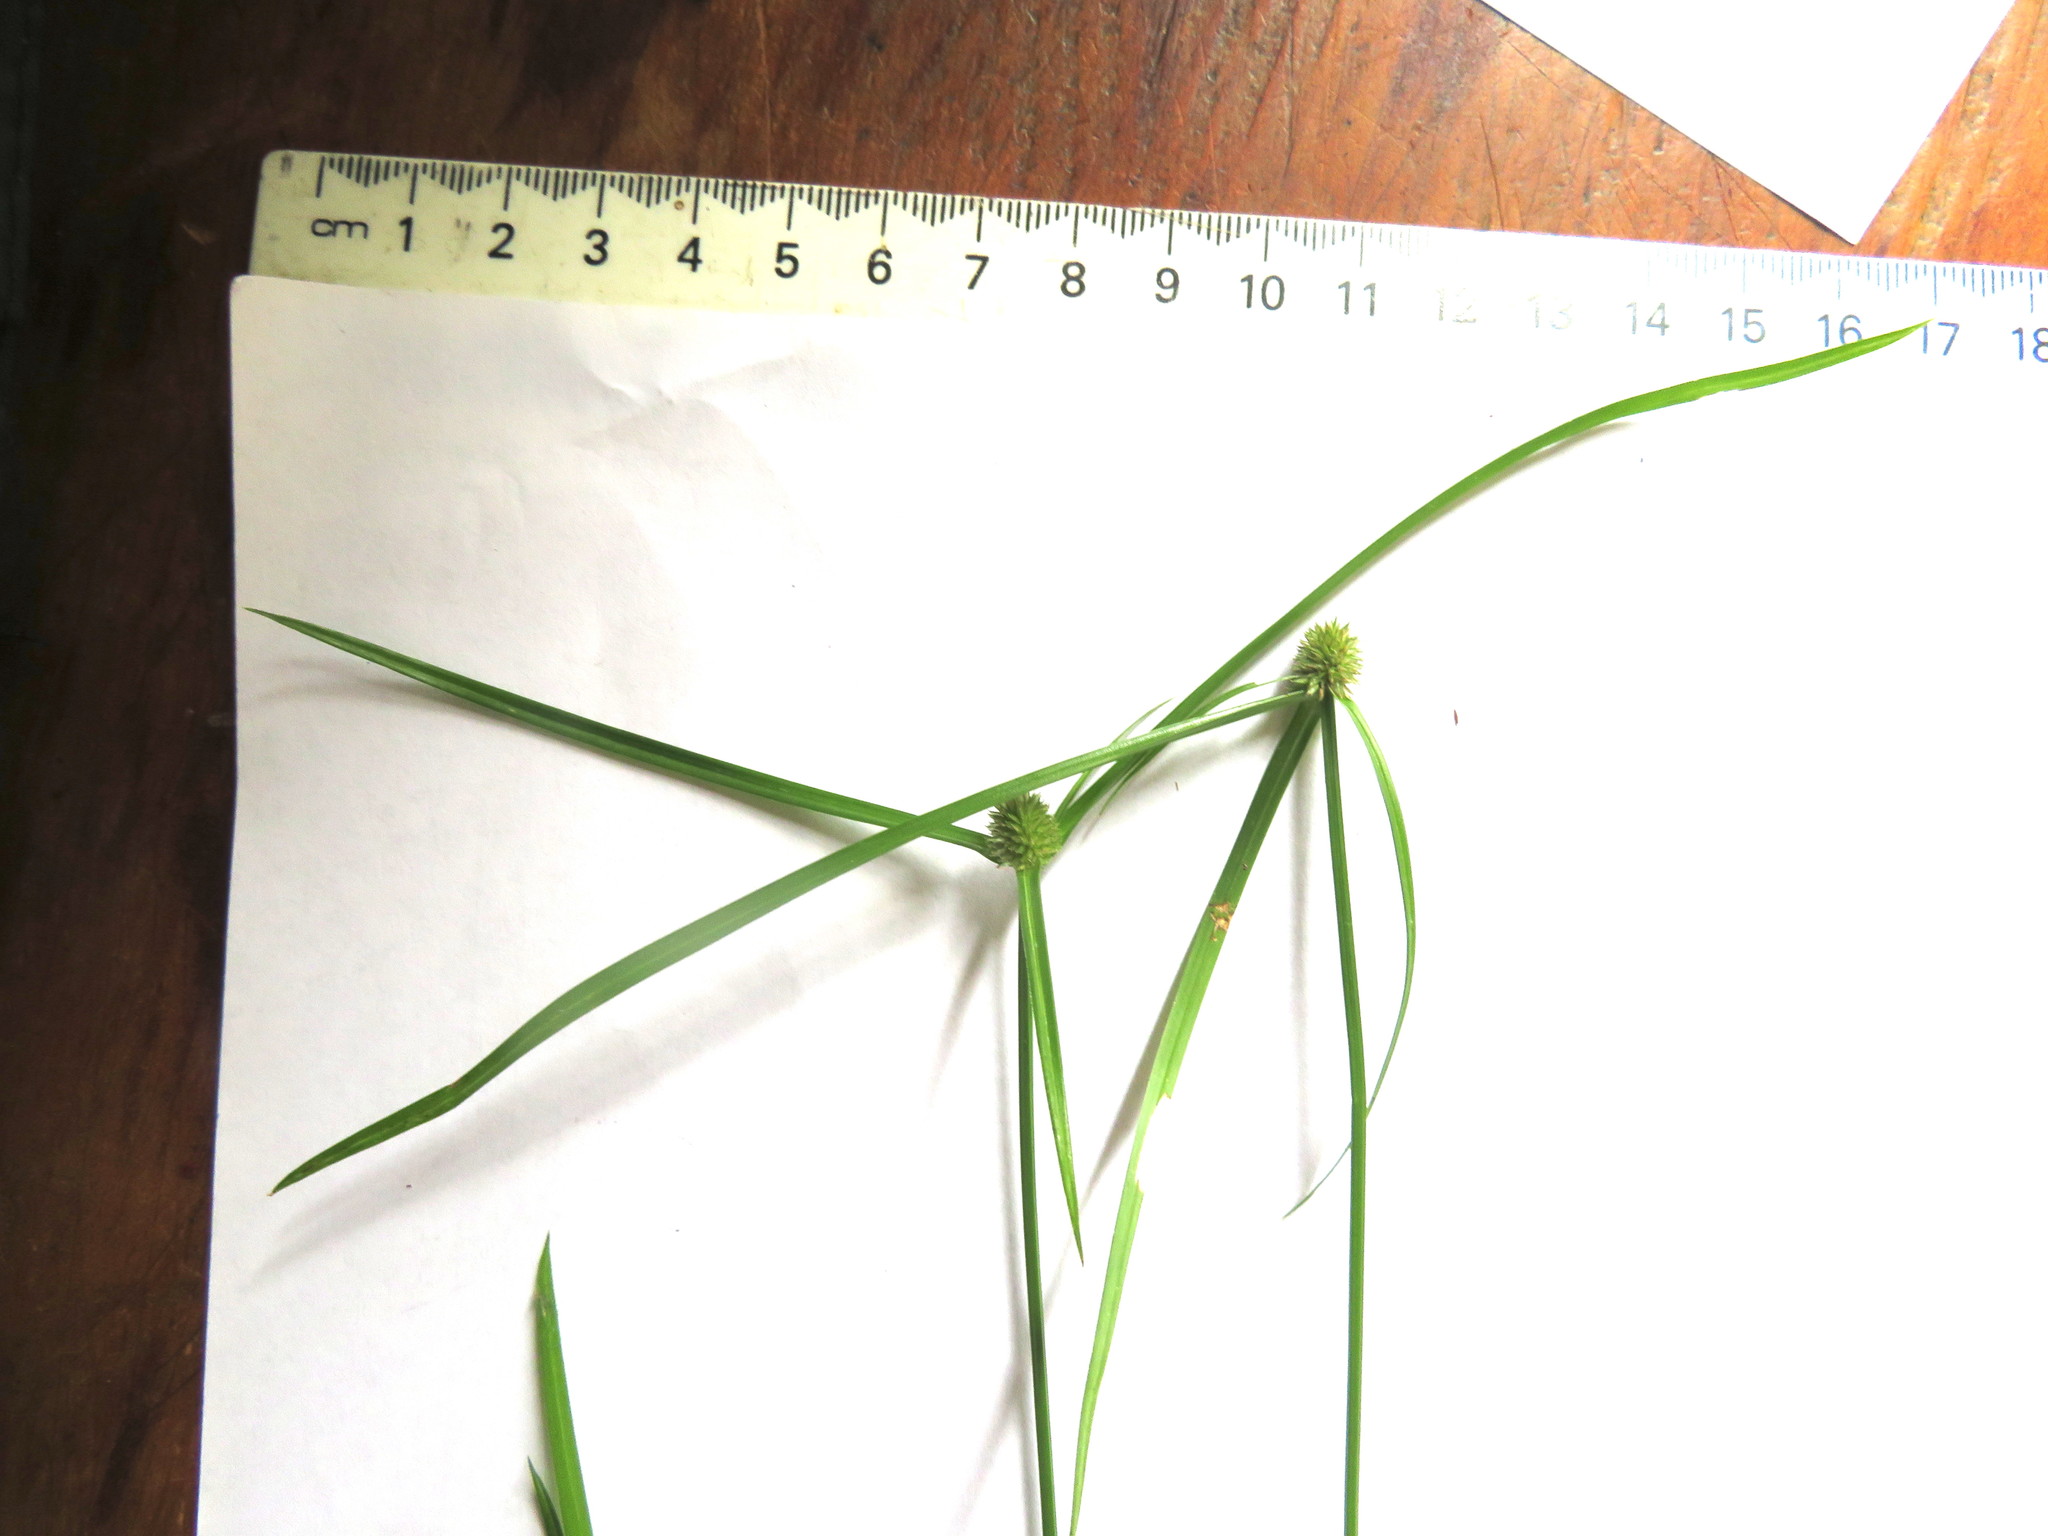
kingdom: Plantae
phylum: Tracheophyta
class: Liliopsida
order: Poales
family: Cyperaceae
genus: Cyperus
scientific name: Cyperus brevifolius
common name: Globe kyllinga
